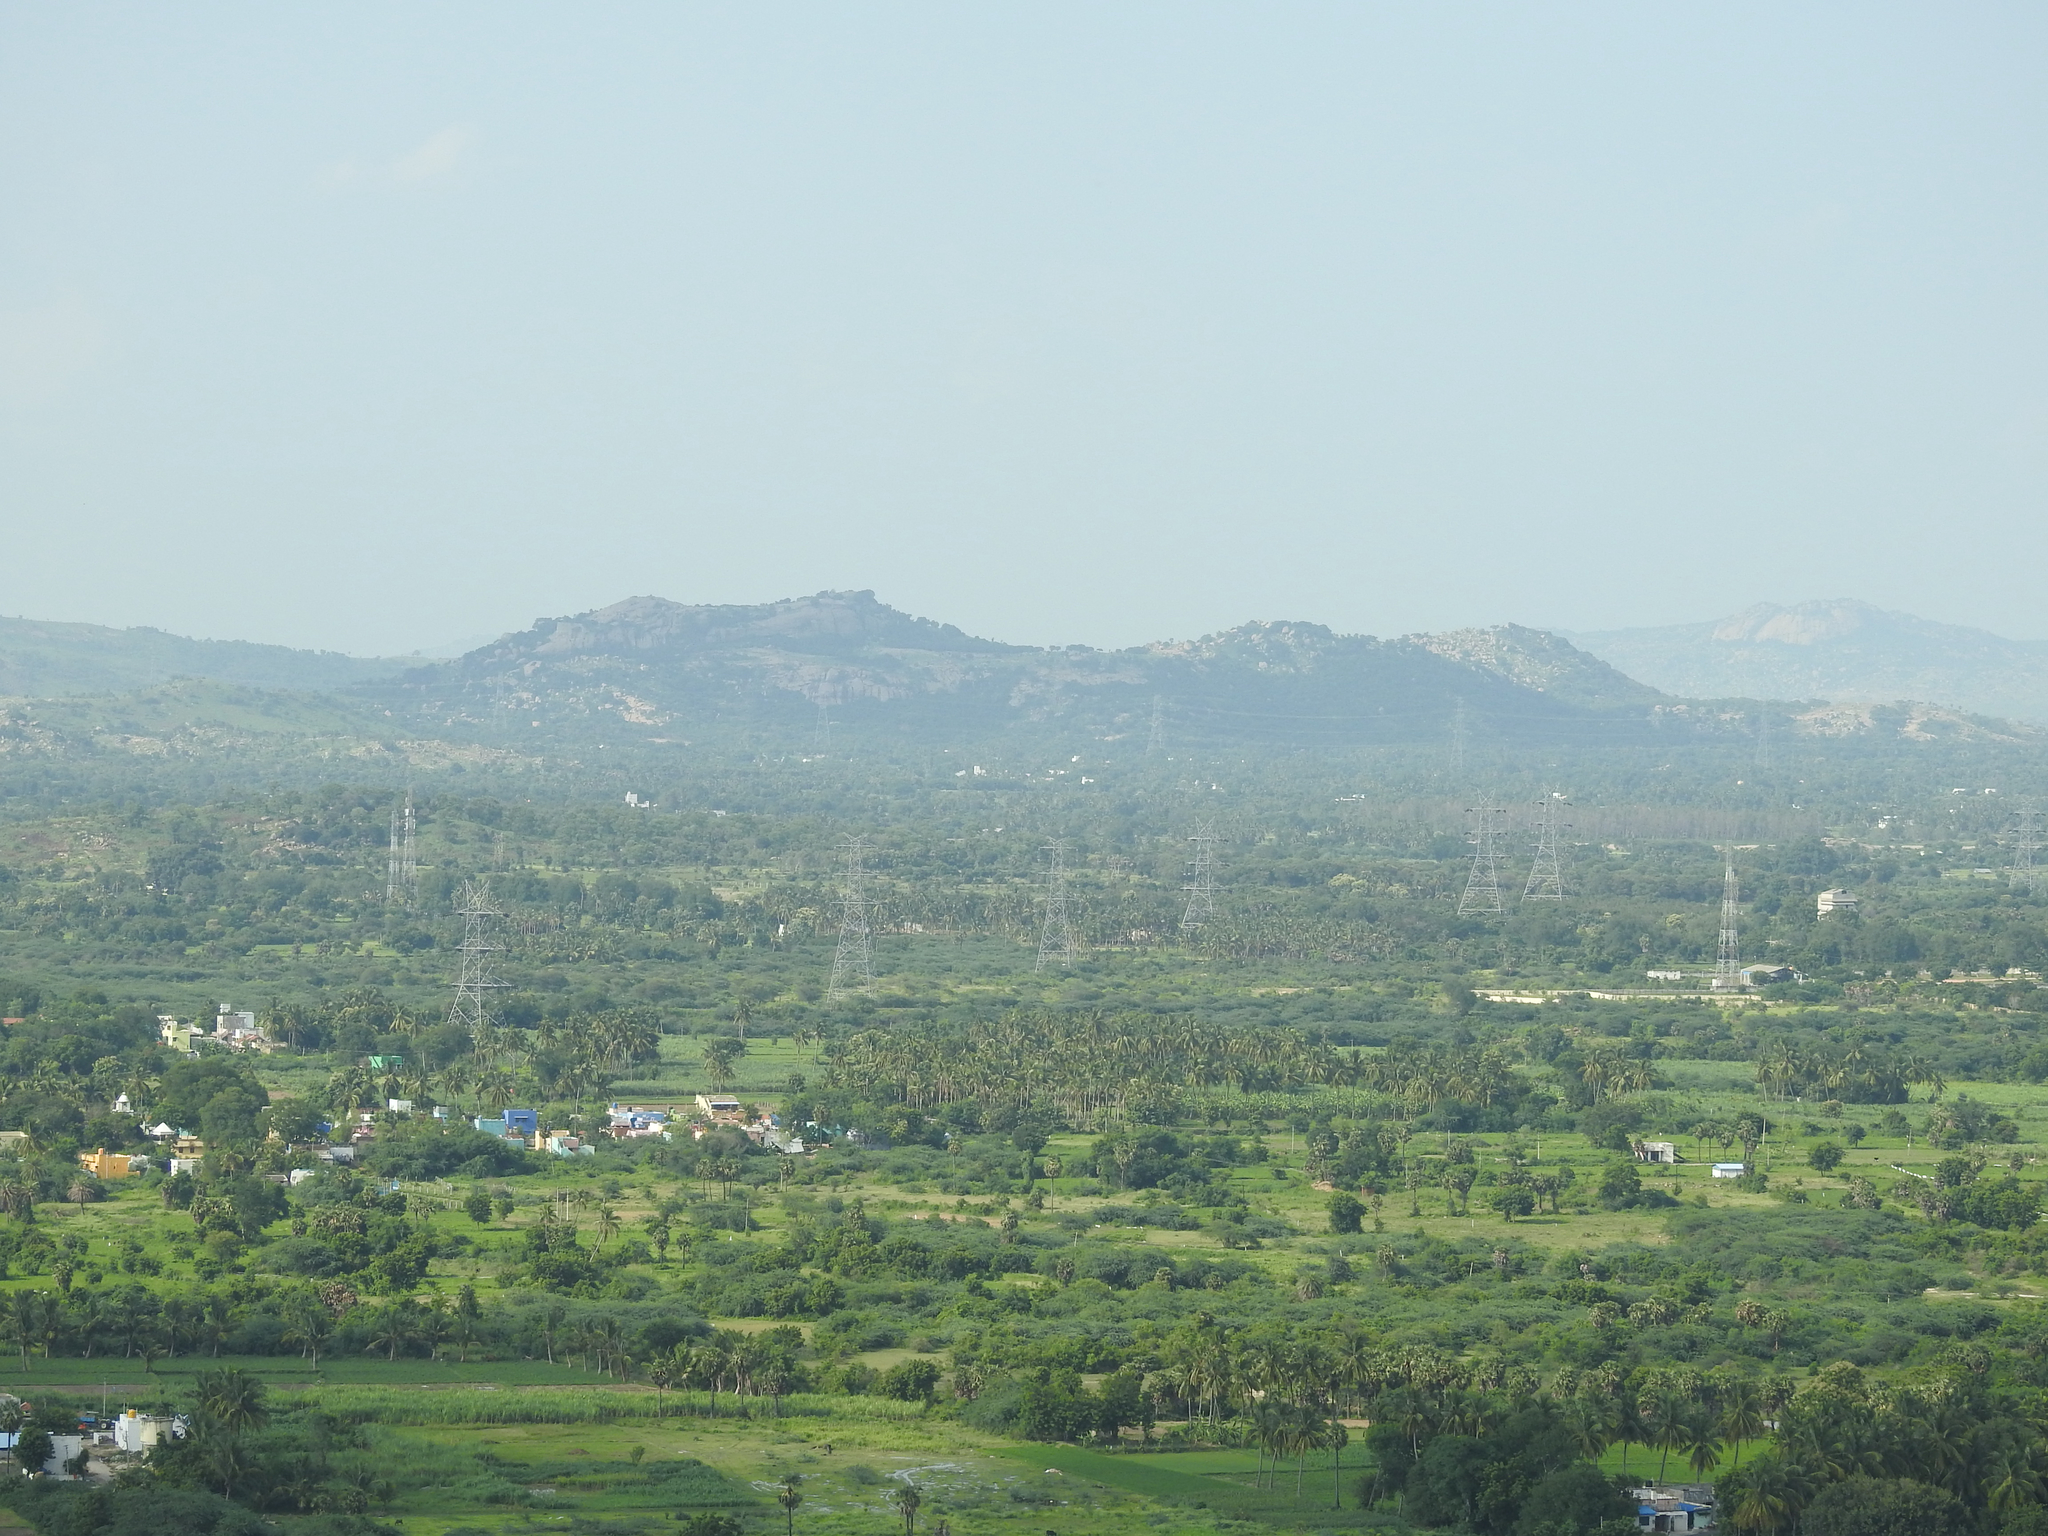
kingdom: Plantae
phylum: Tracheophyta
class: Liliopsida
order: Arecales
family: Arecaceae
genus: Cocos
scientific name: Cocos nucifera
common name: Coconut palm
